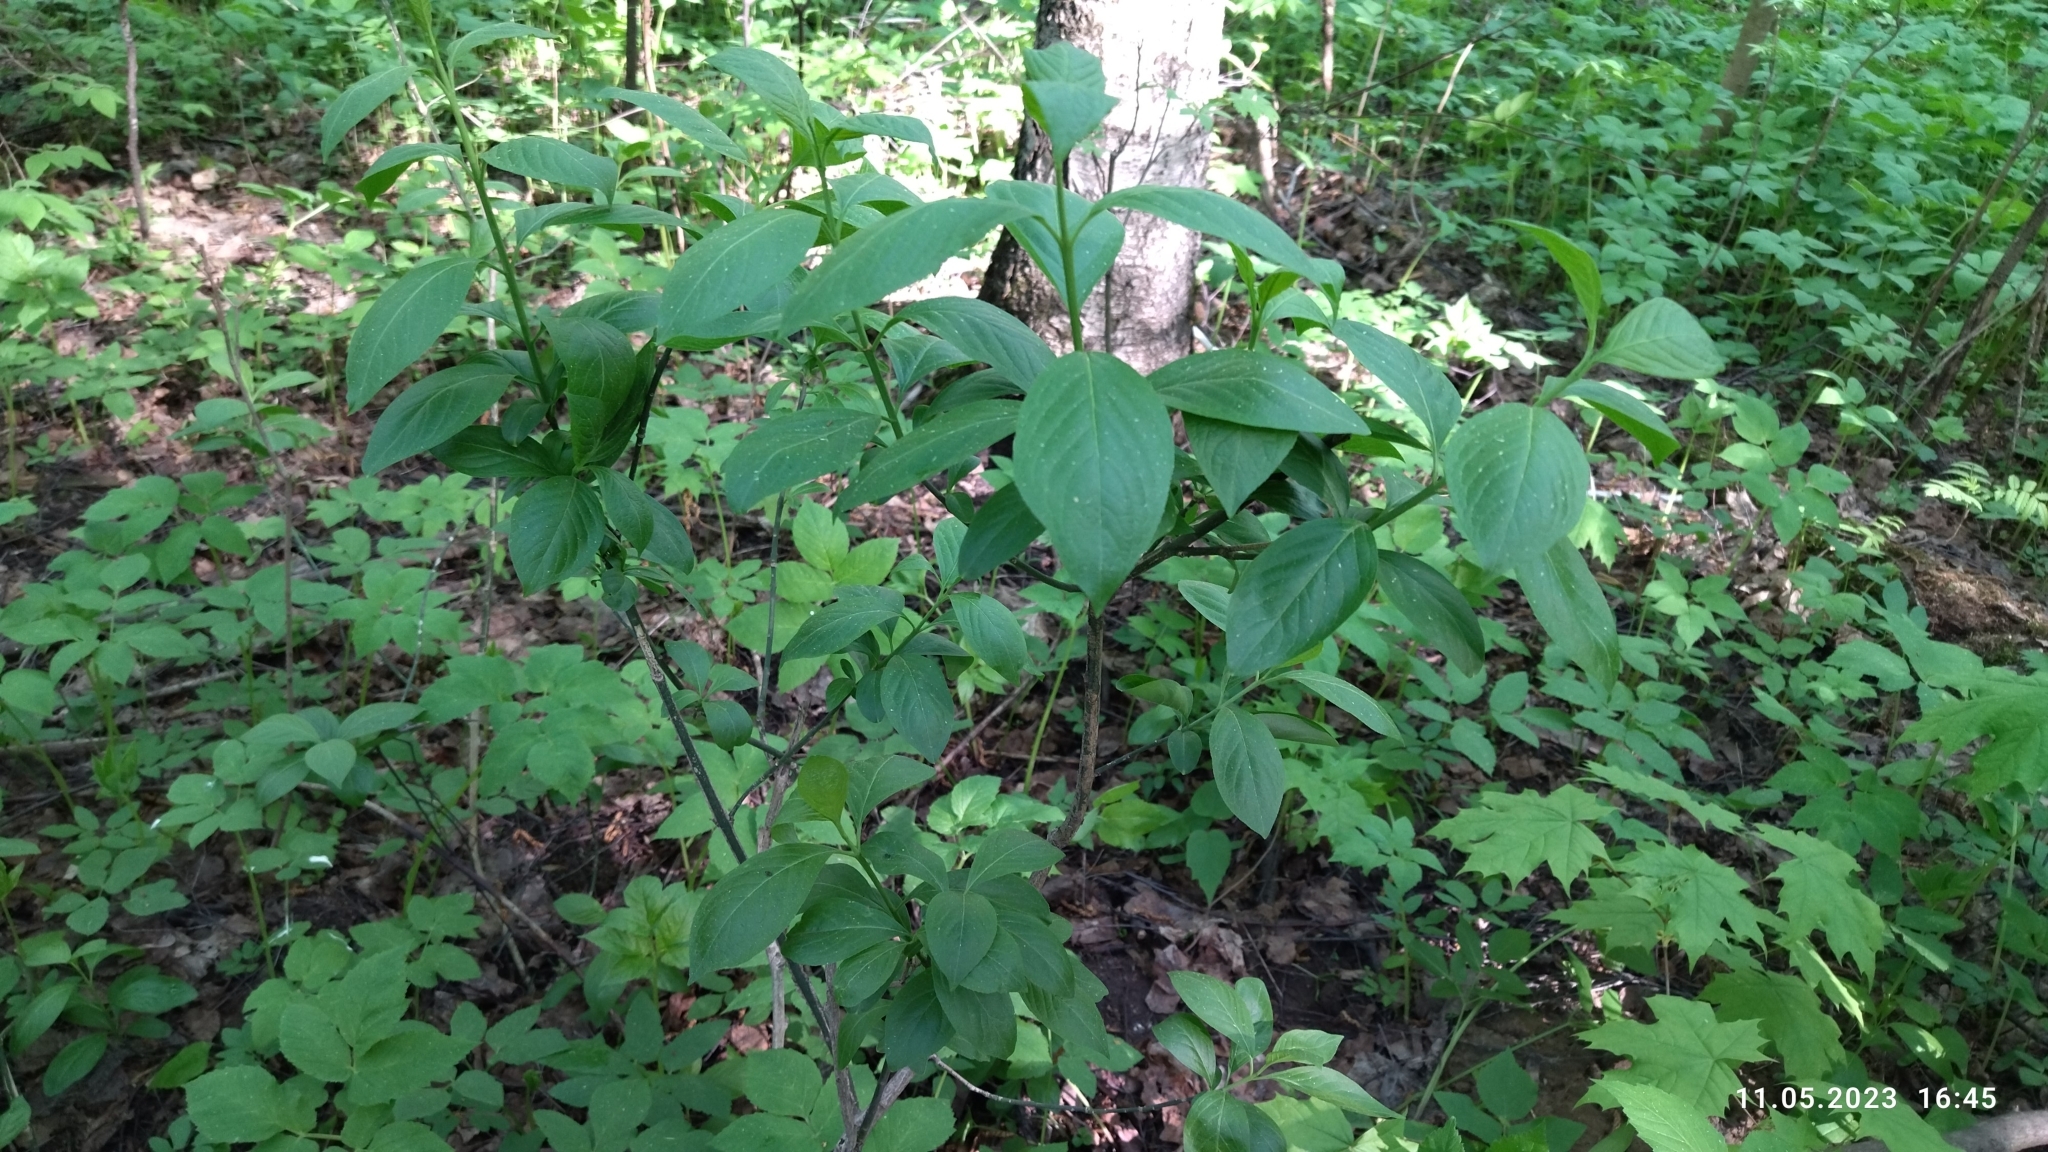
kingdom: Plantae
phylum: Tracheophyta
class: Magnoliopsida
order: Celastrales
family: Celastraceae
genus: Euonymus
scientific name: Euonymus europaeus
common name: Spindle
